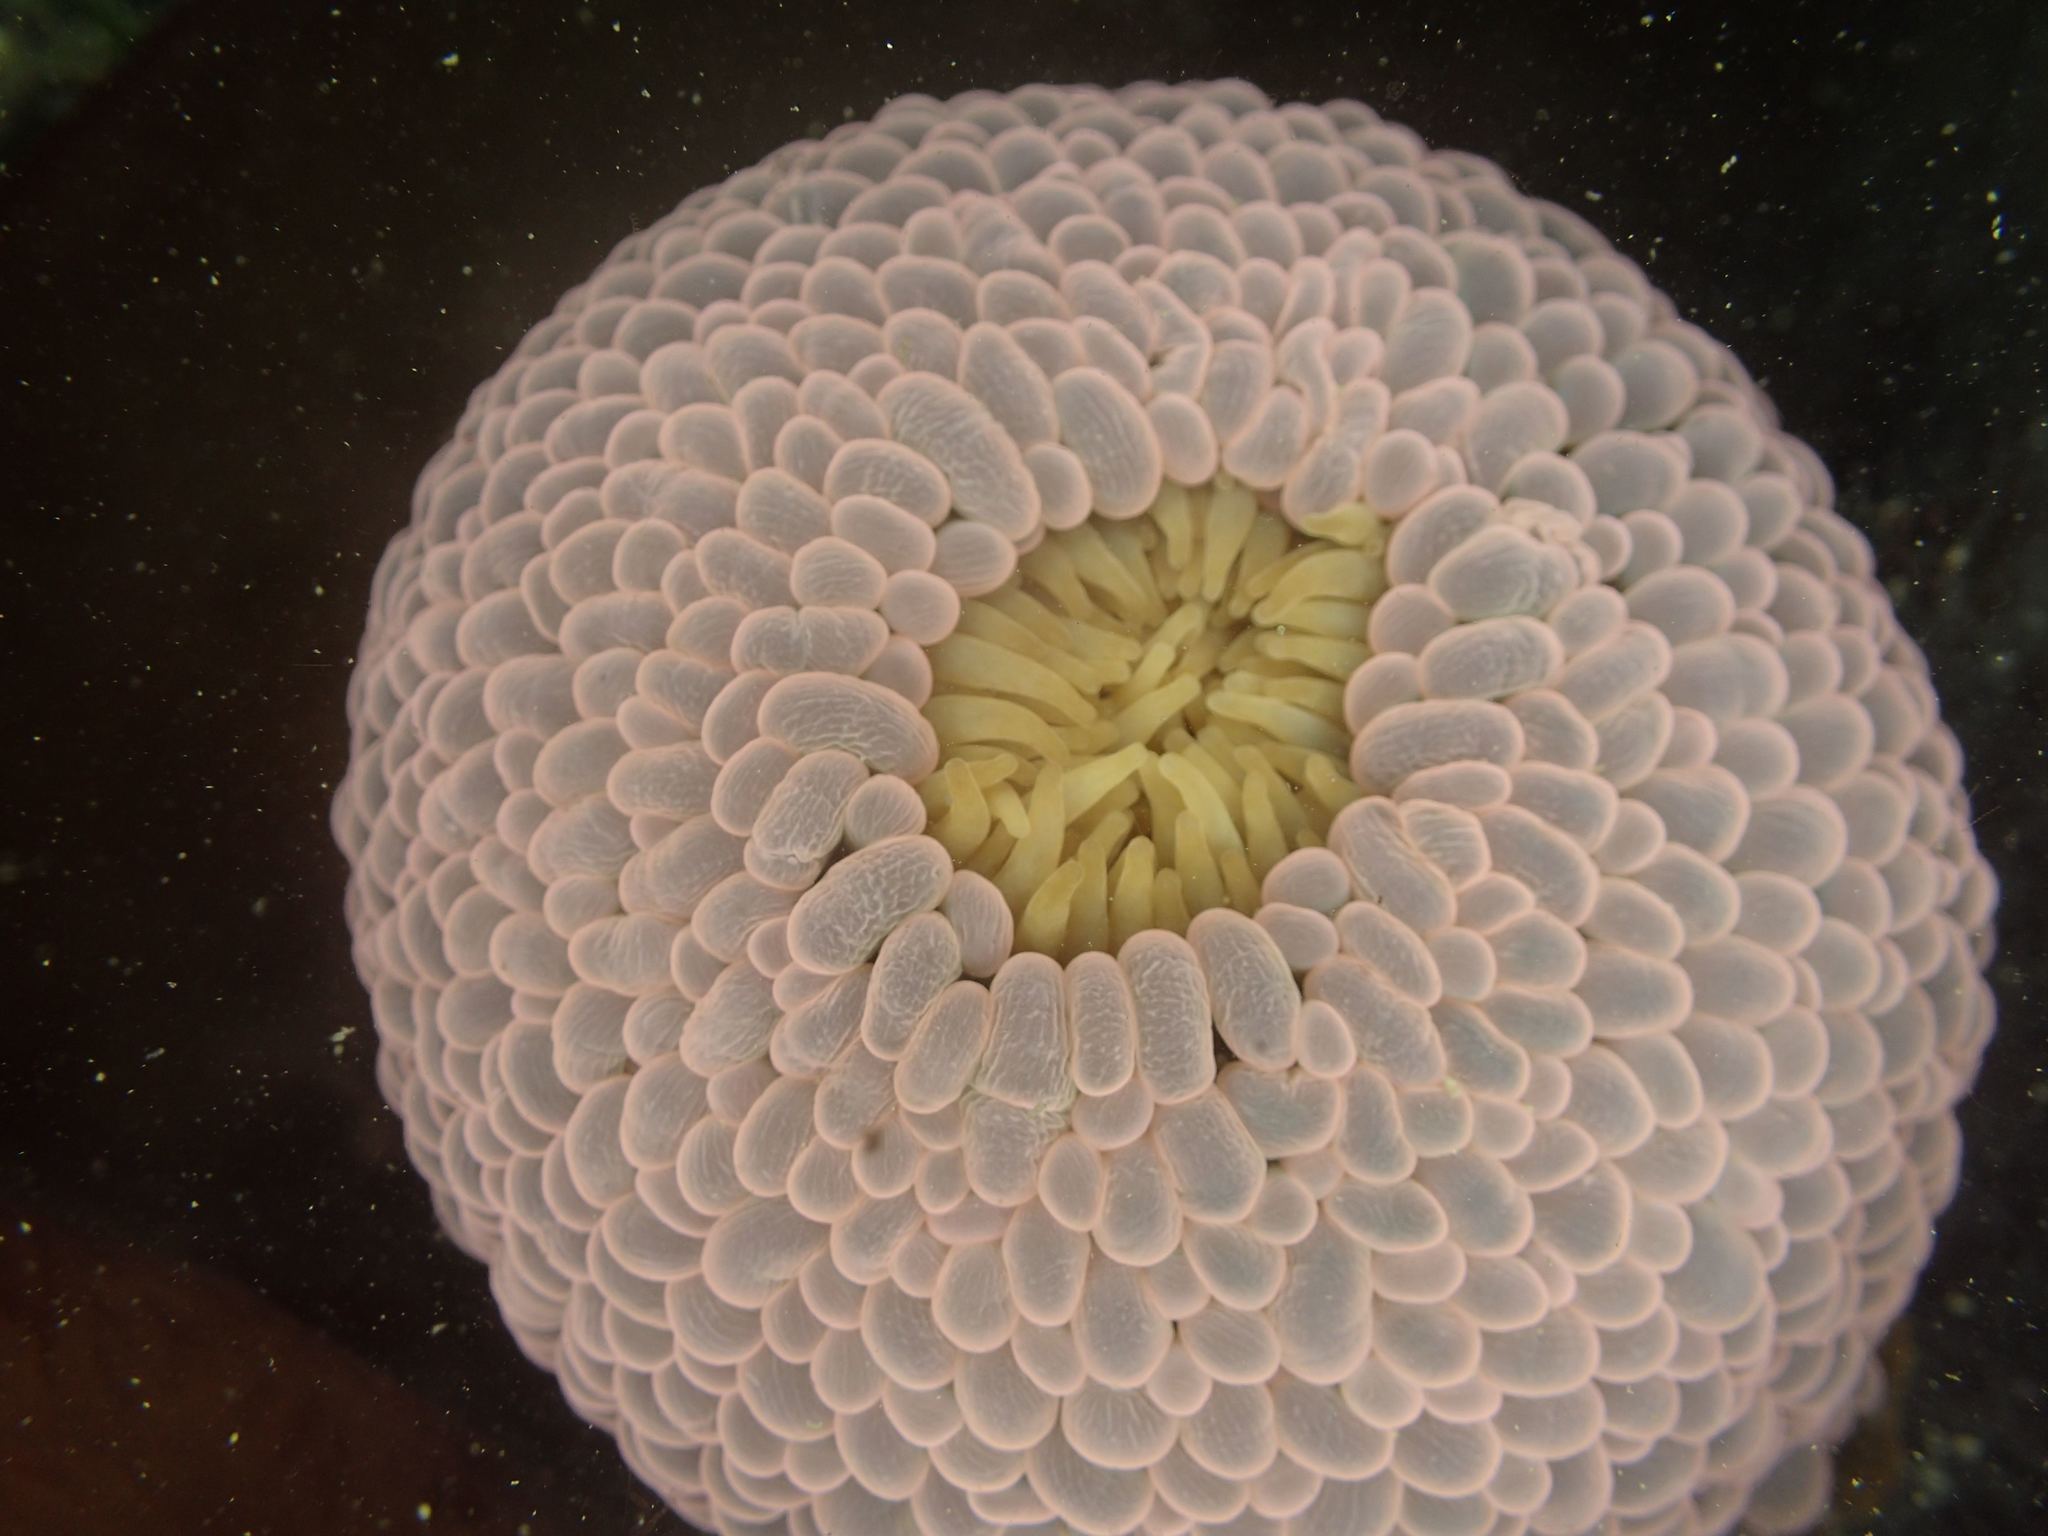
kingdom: Animalia
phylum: Cnidaria
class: Anthozoa
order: Actiniaria
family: Actiniidae
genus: Phlyctenactis
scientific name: Phlyctenactis tuberculosa
